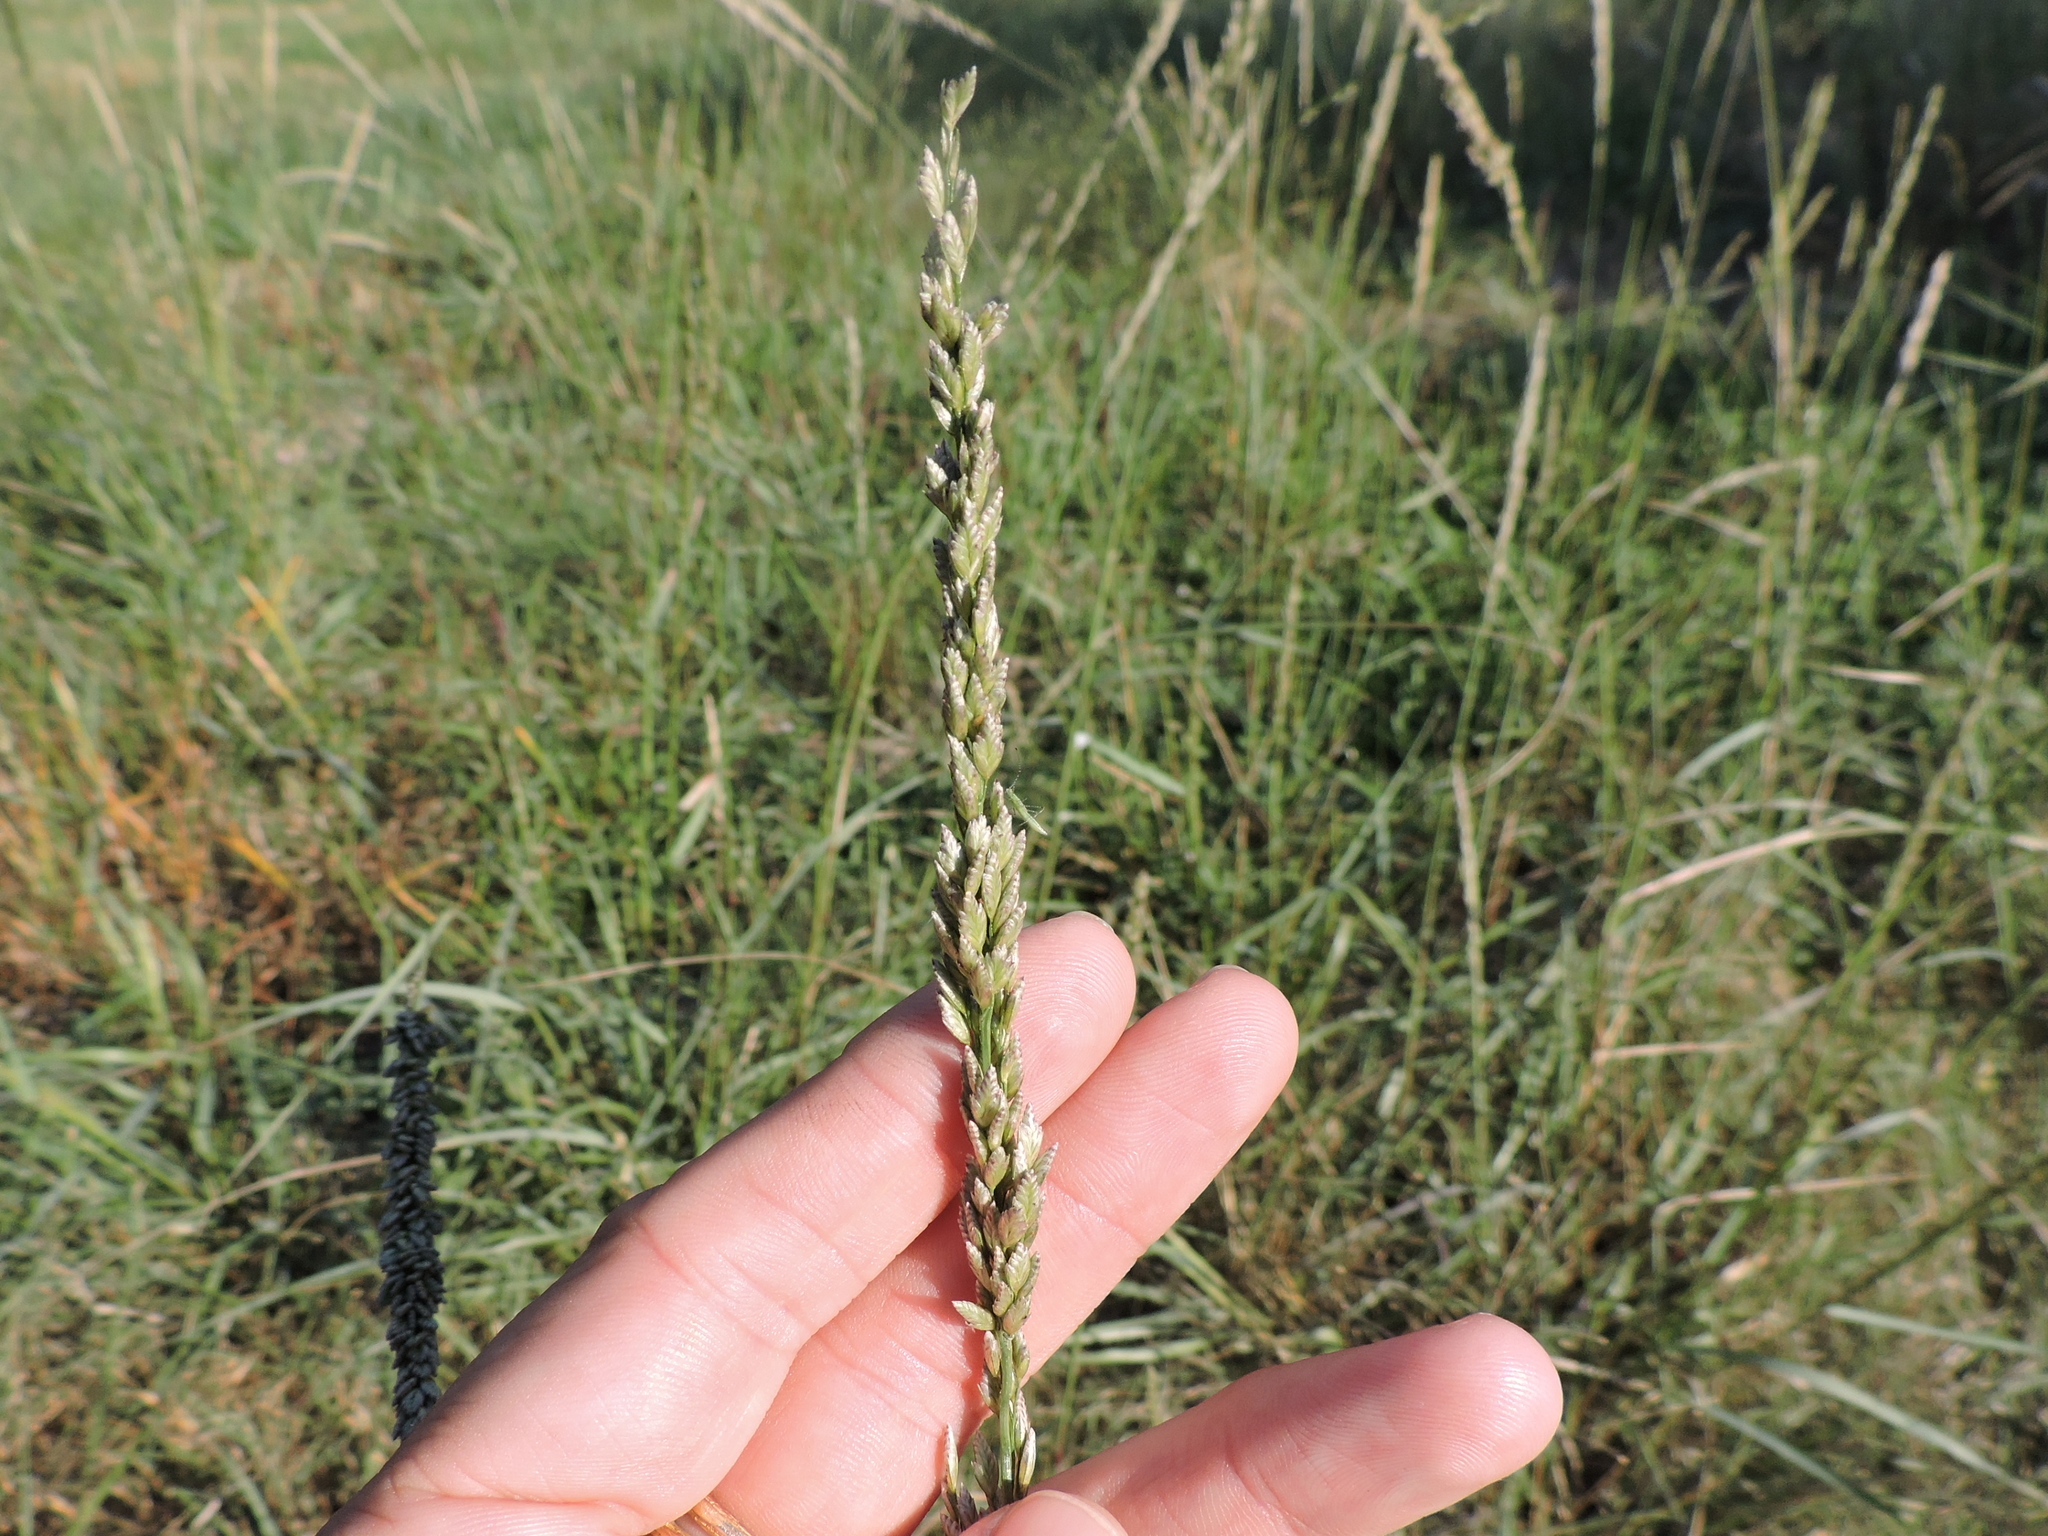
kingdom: Plantae
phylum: Tracheophyta
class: Liliopsida
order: Poales
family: Poaceae
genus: Tridens
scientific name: Tridens albescens
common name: White tridens
